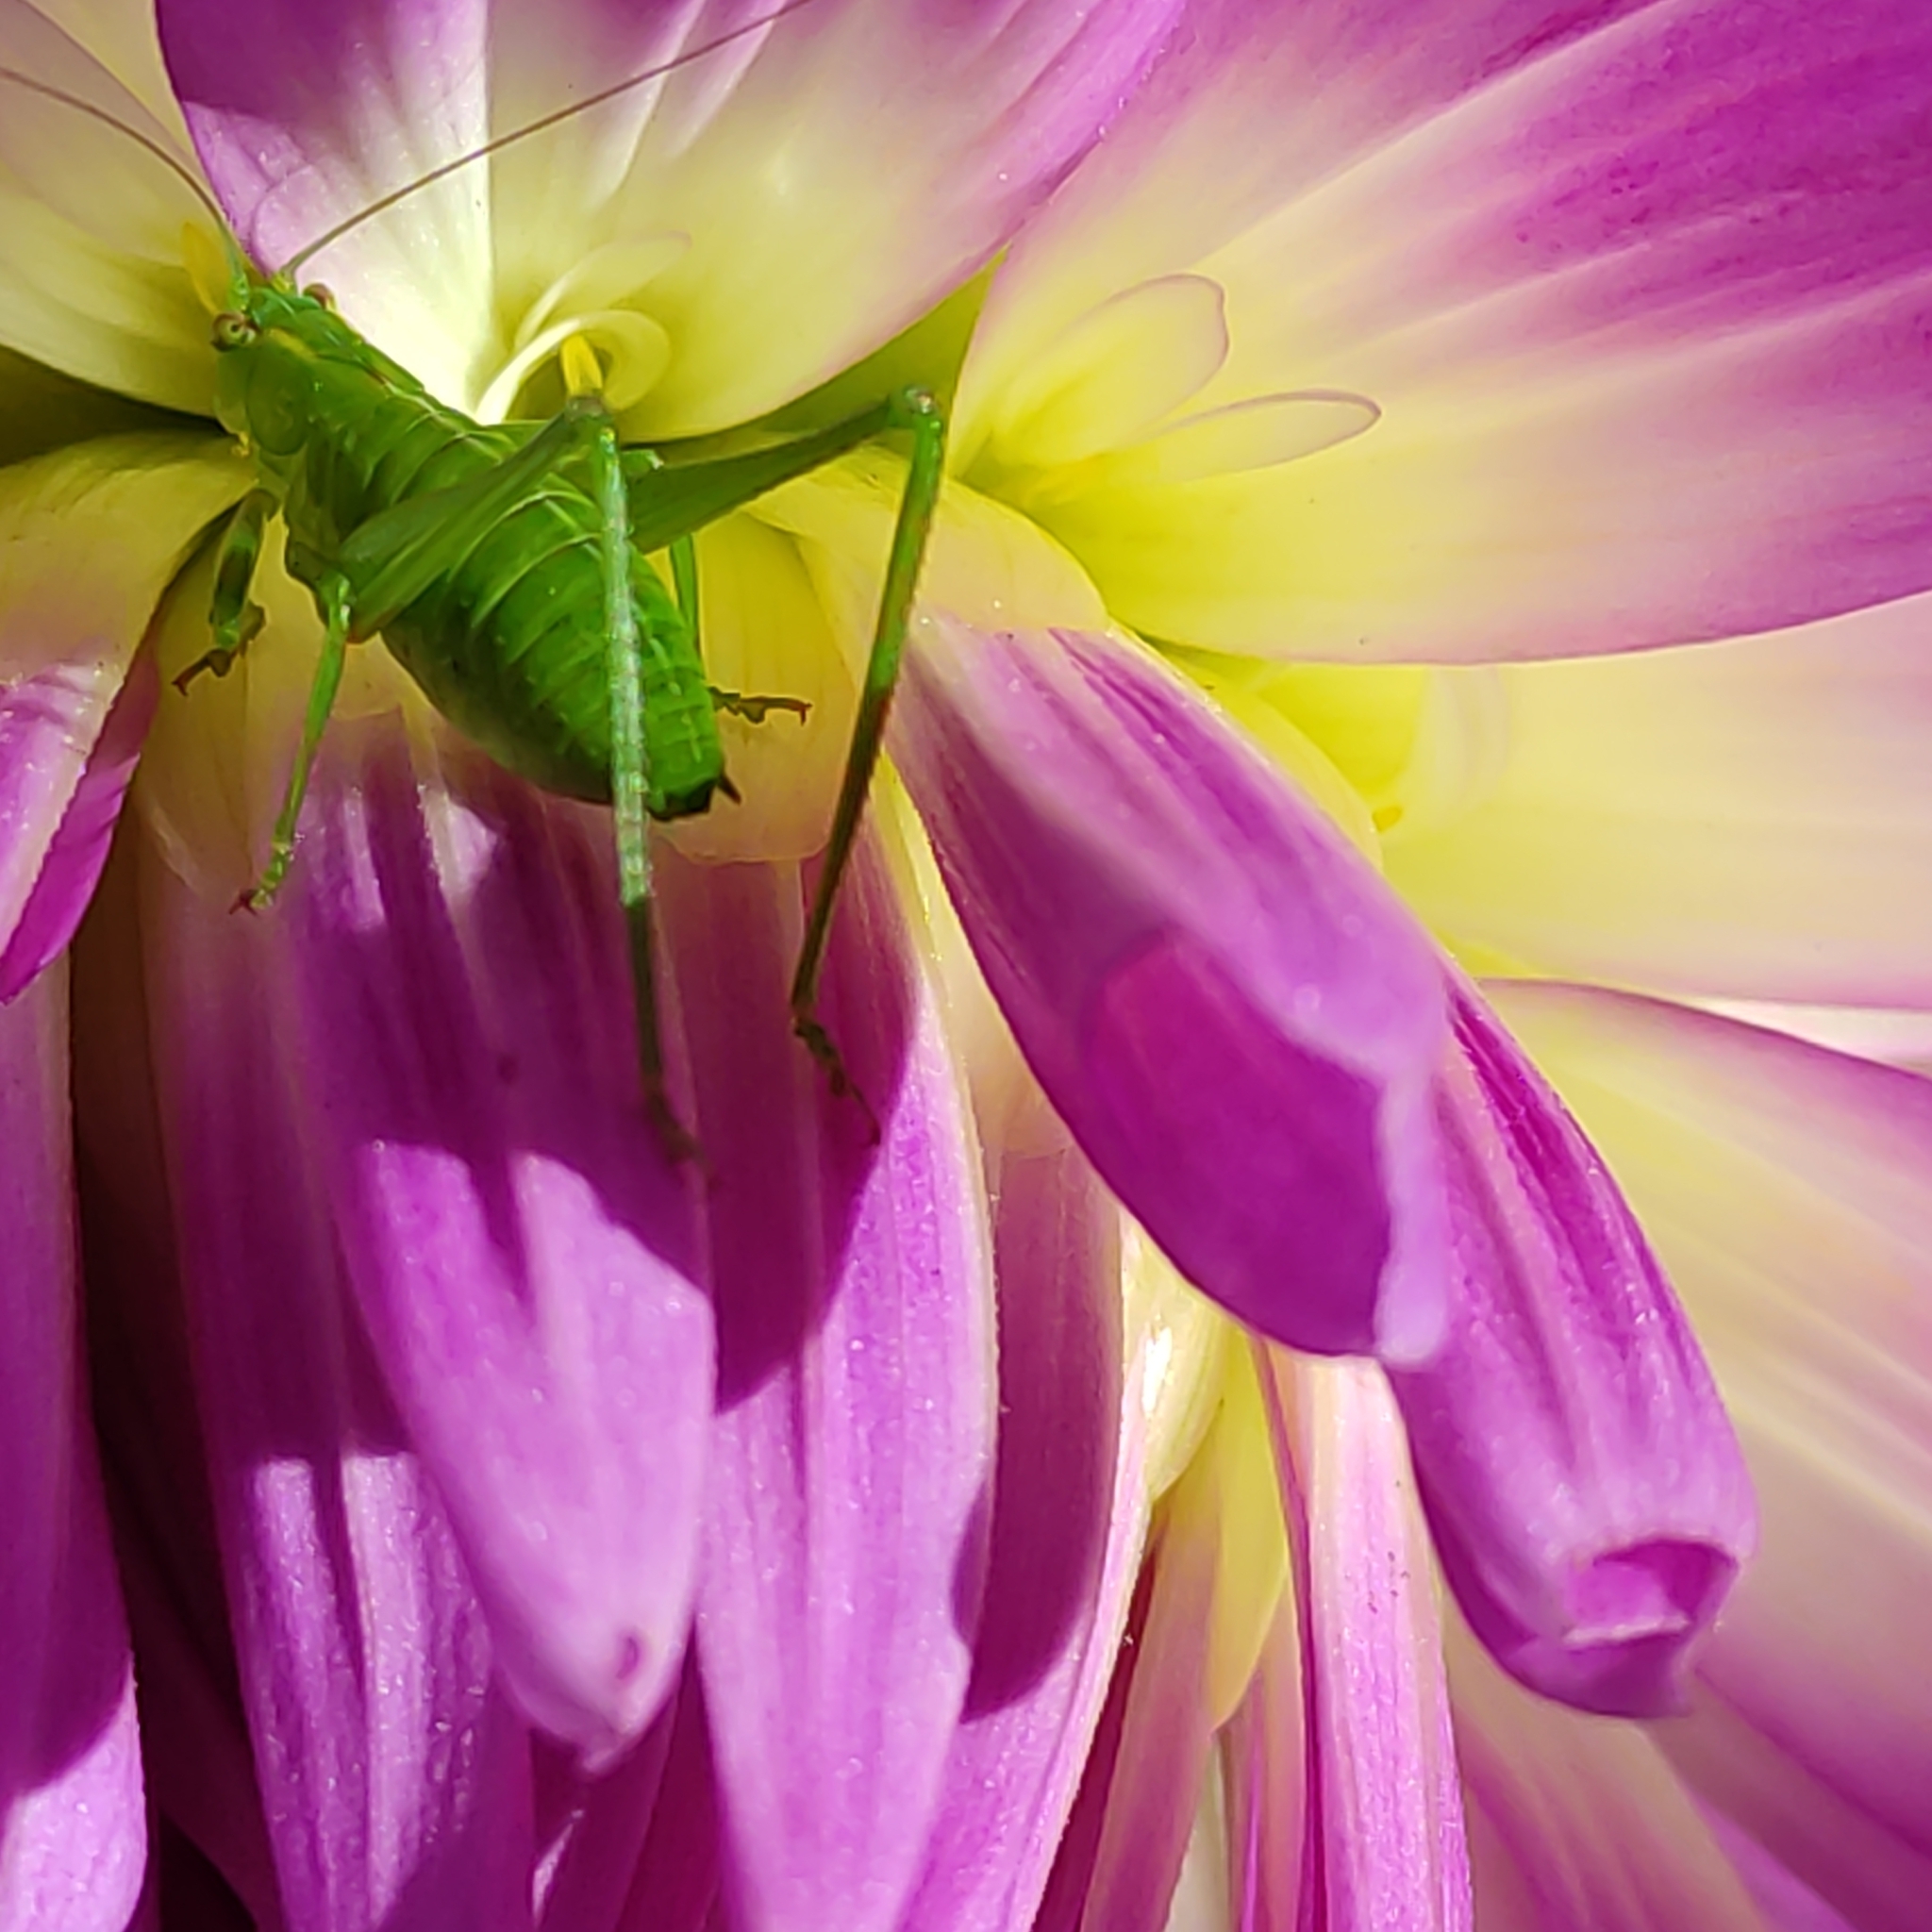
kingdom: Animalia
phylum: Arthropoda
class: Insecta
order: Orthoptera
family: Tettigoniidae
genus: Caedicia
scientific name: Caedicia simplex
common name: Common garden katydid
